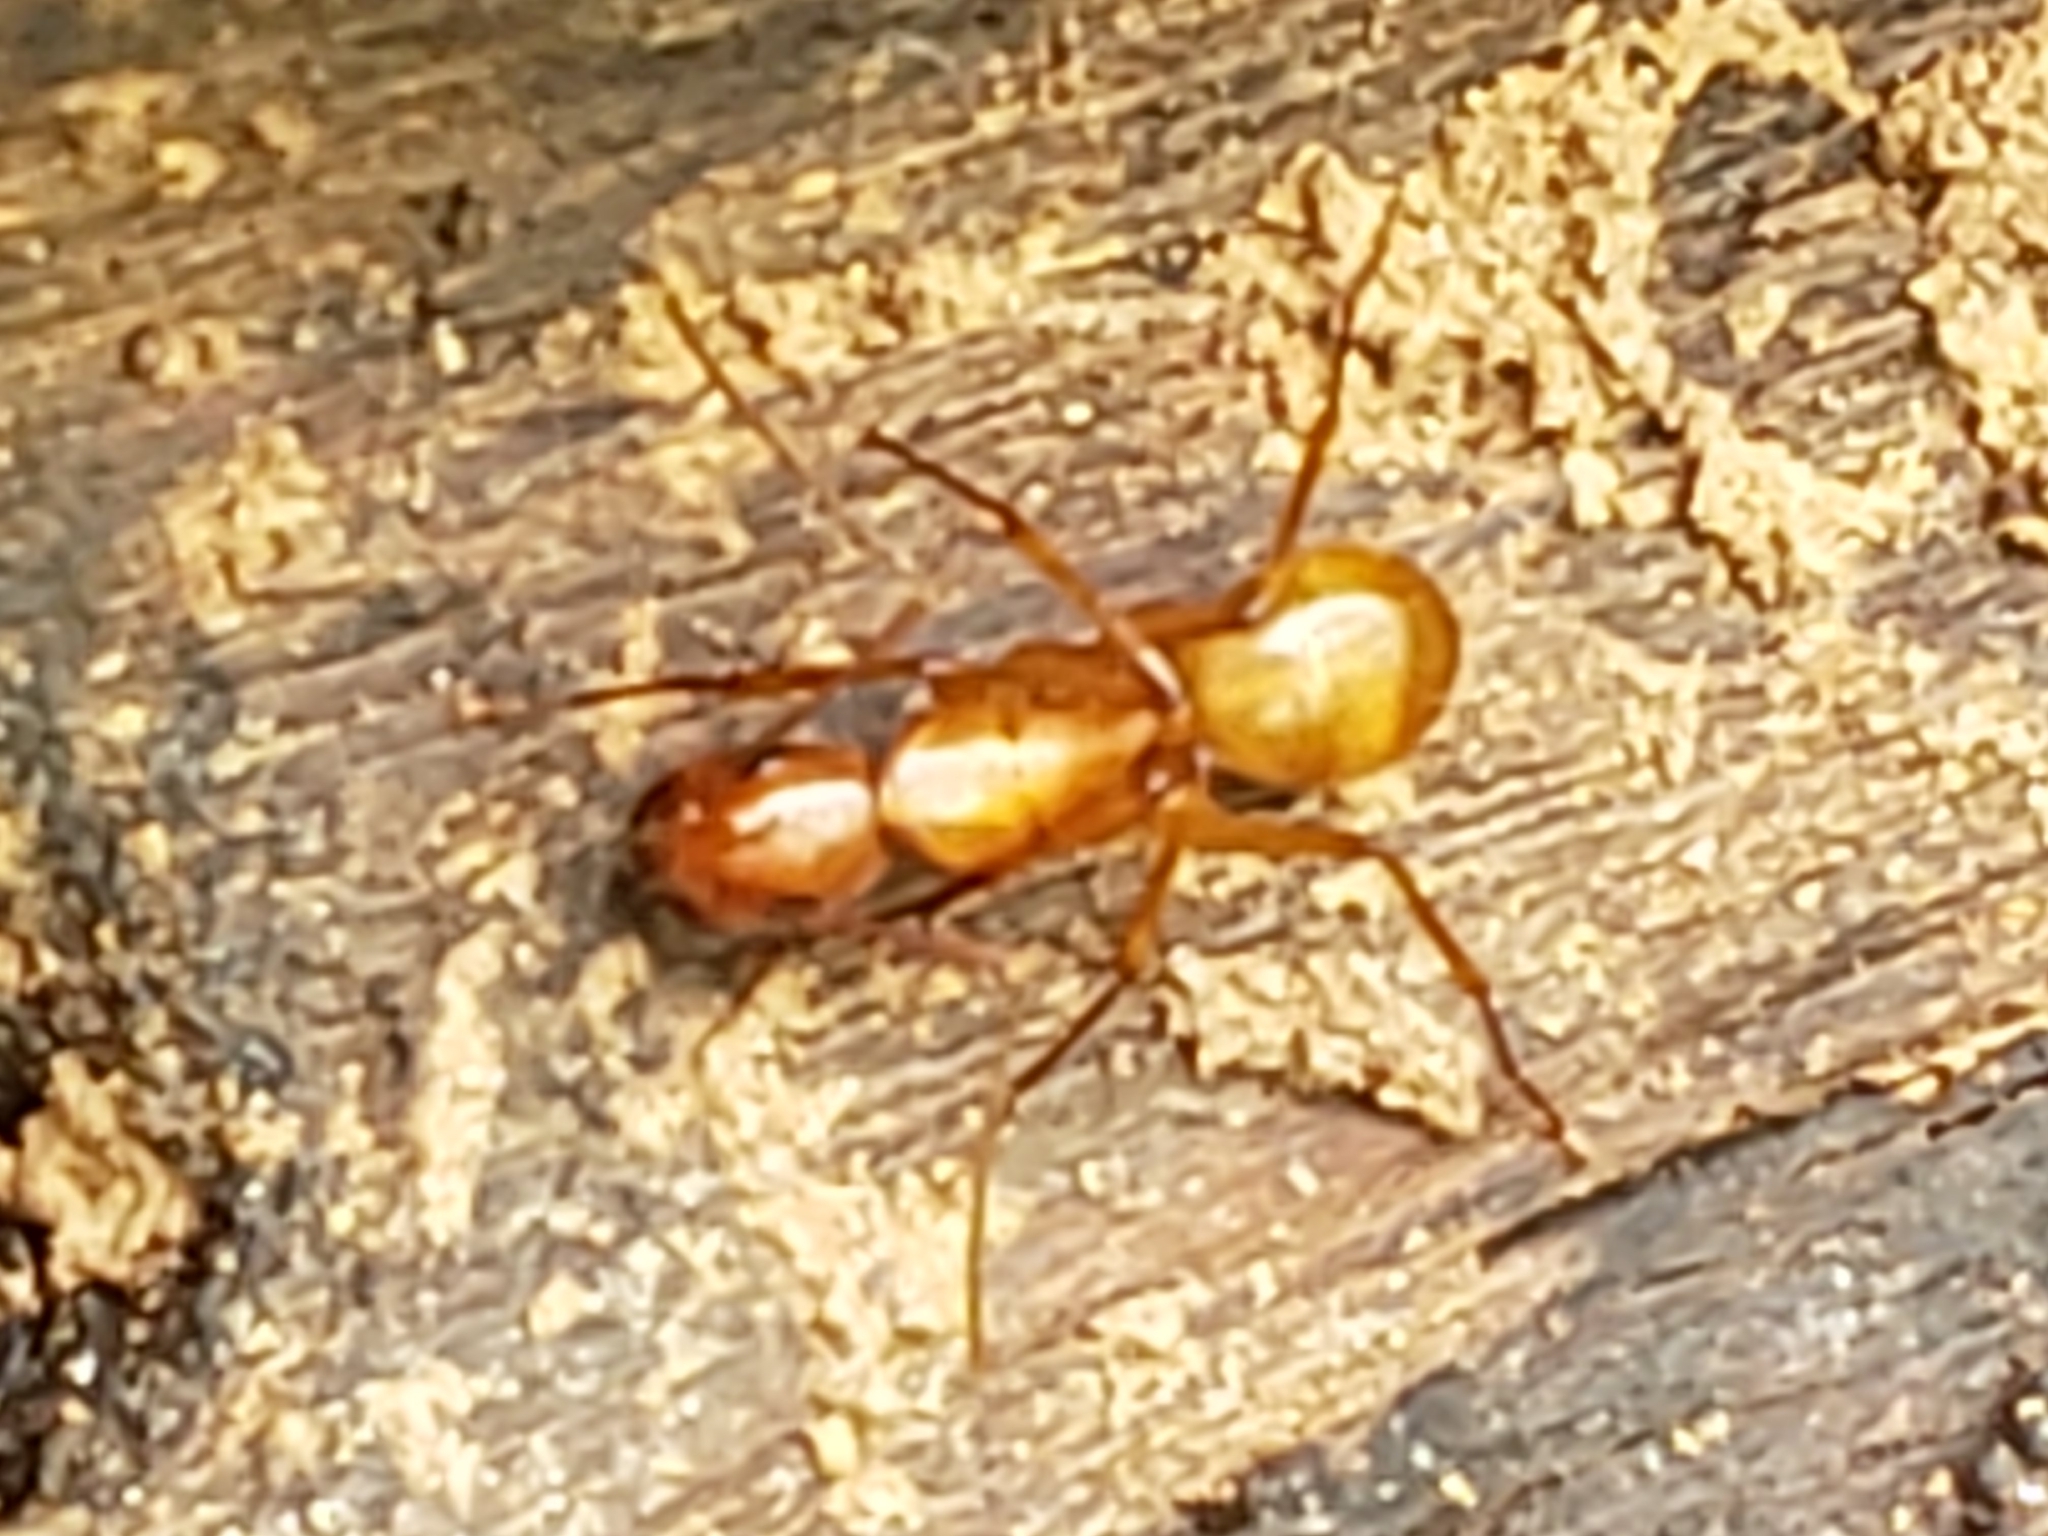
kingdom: Animalia
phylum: Arthropoda
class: Insecta
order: Hymenoptera
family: Formicidae
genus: Camponotus
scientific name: Camponotus castaneus
